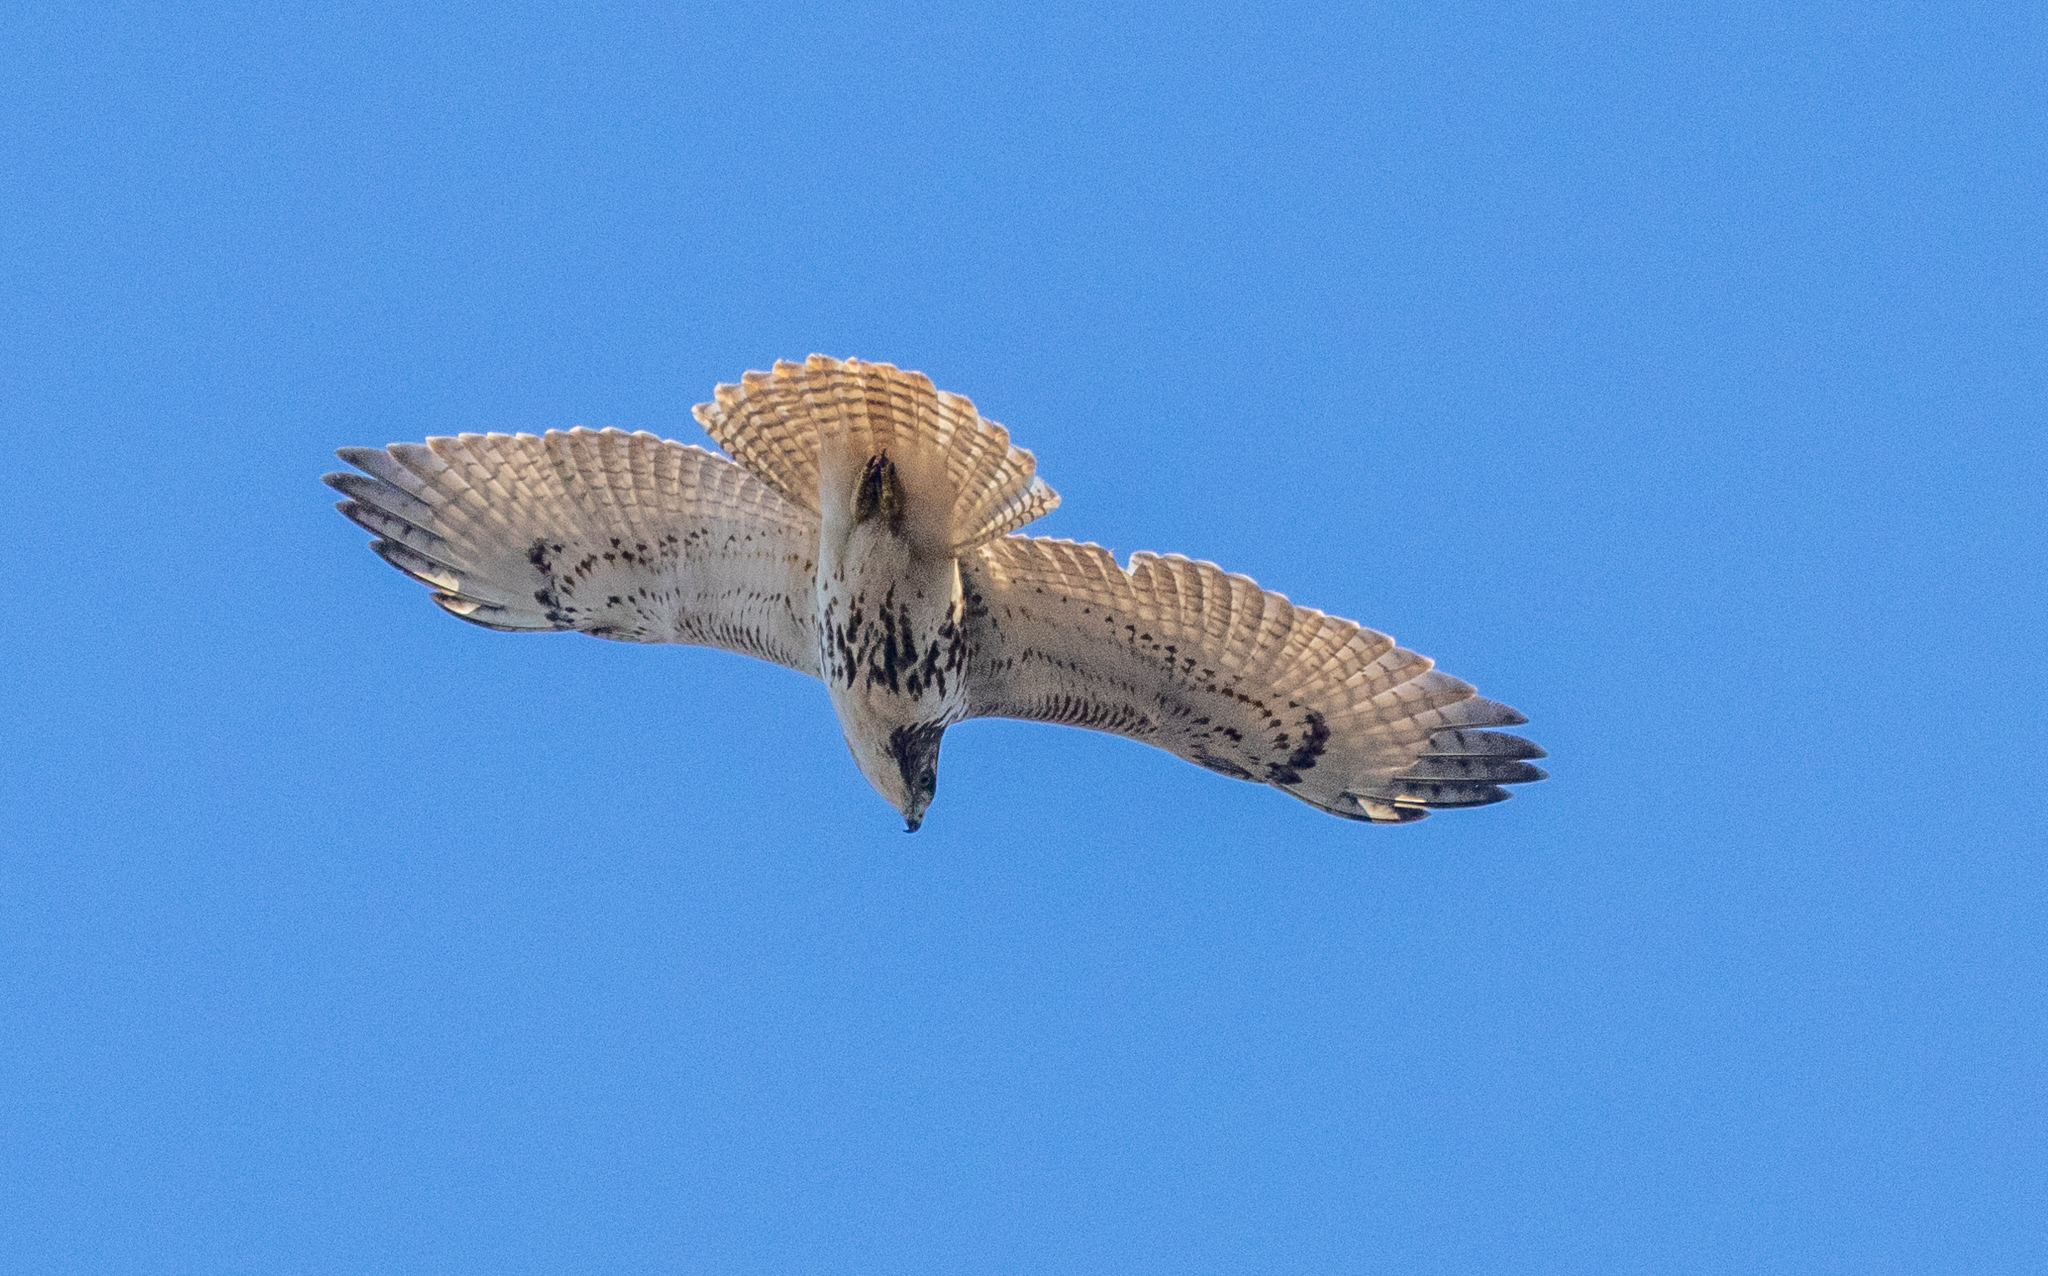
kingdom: Animalia
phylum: Chordata
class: Aves
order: Accipitriformes
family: Accipitridae
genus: Buteo
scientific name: Buteo jamaicensis
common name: Red-tailed hawk
